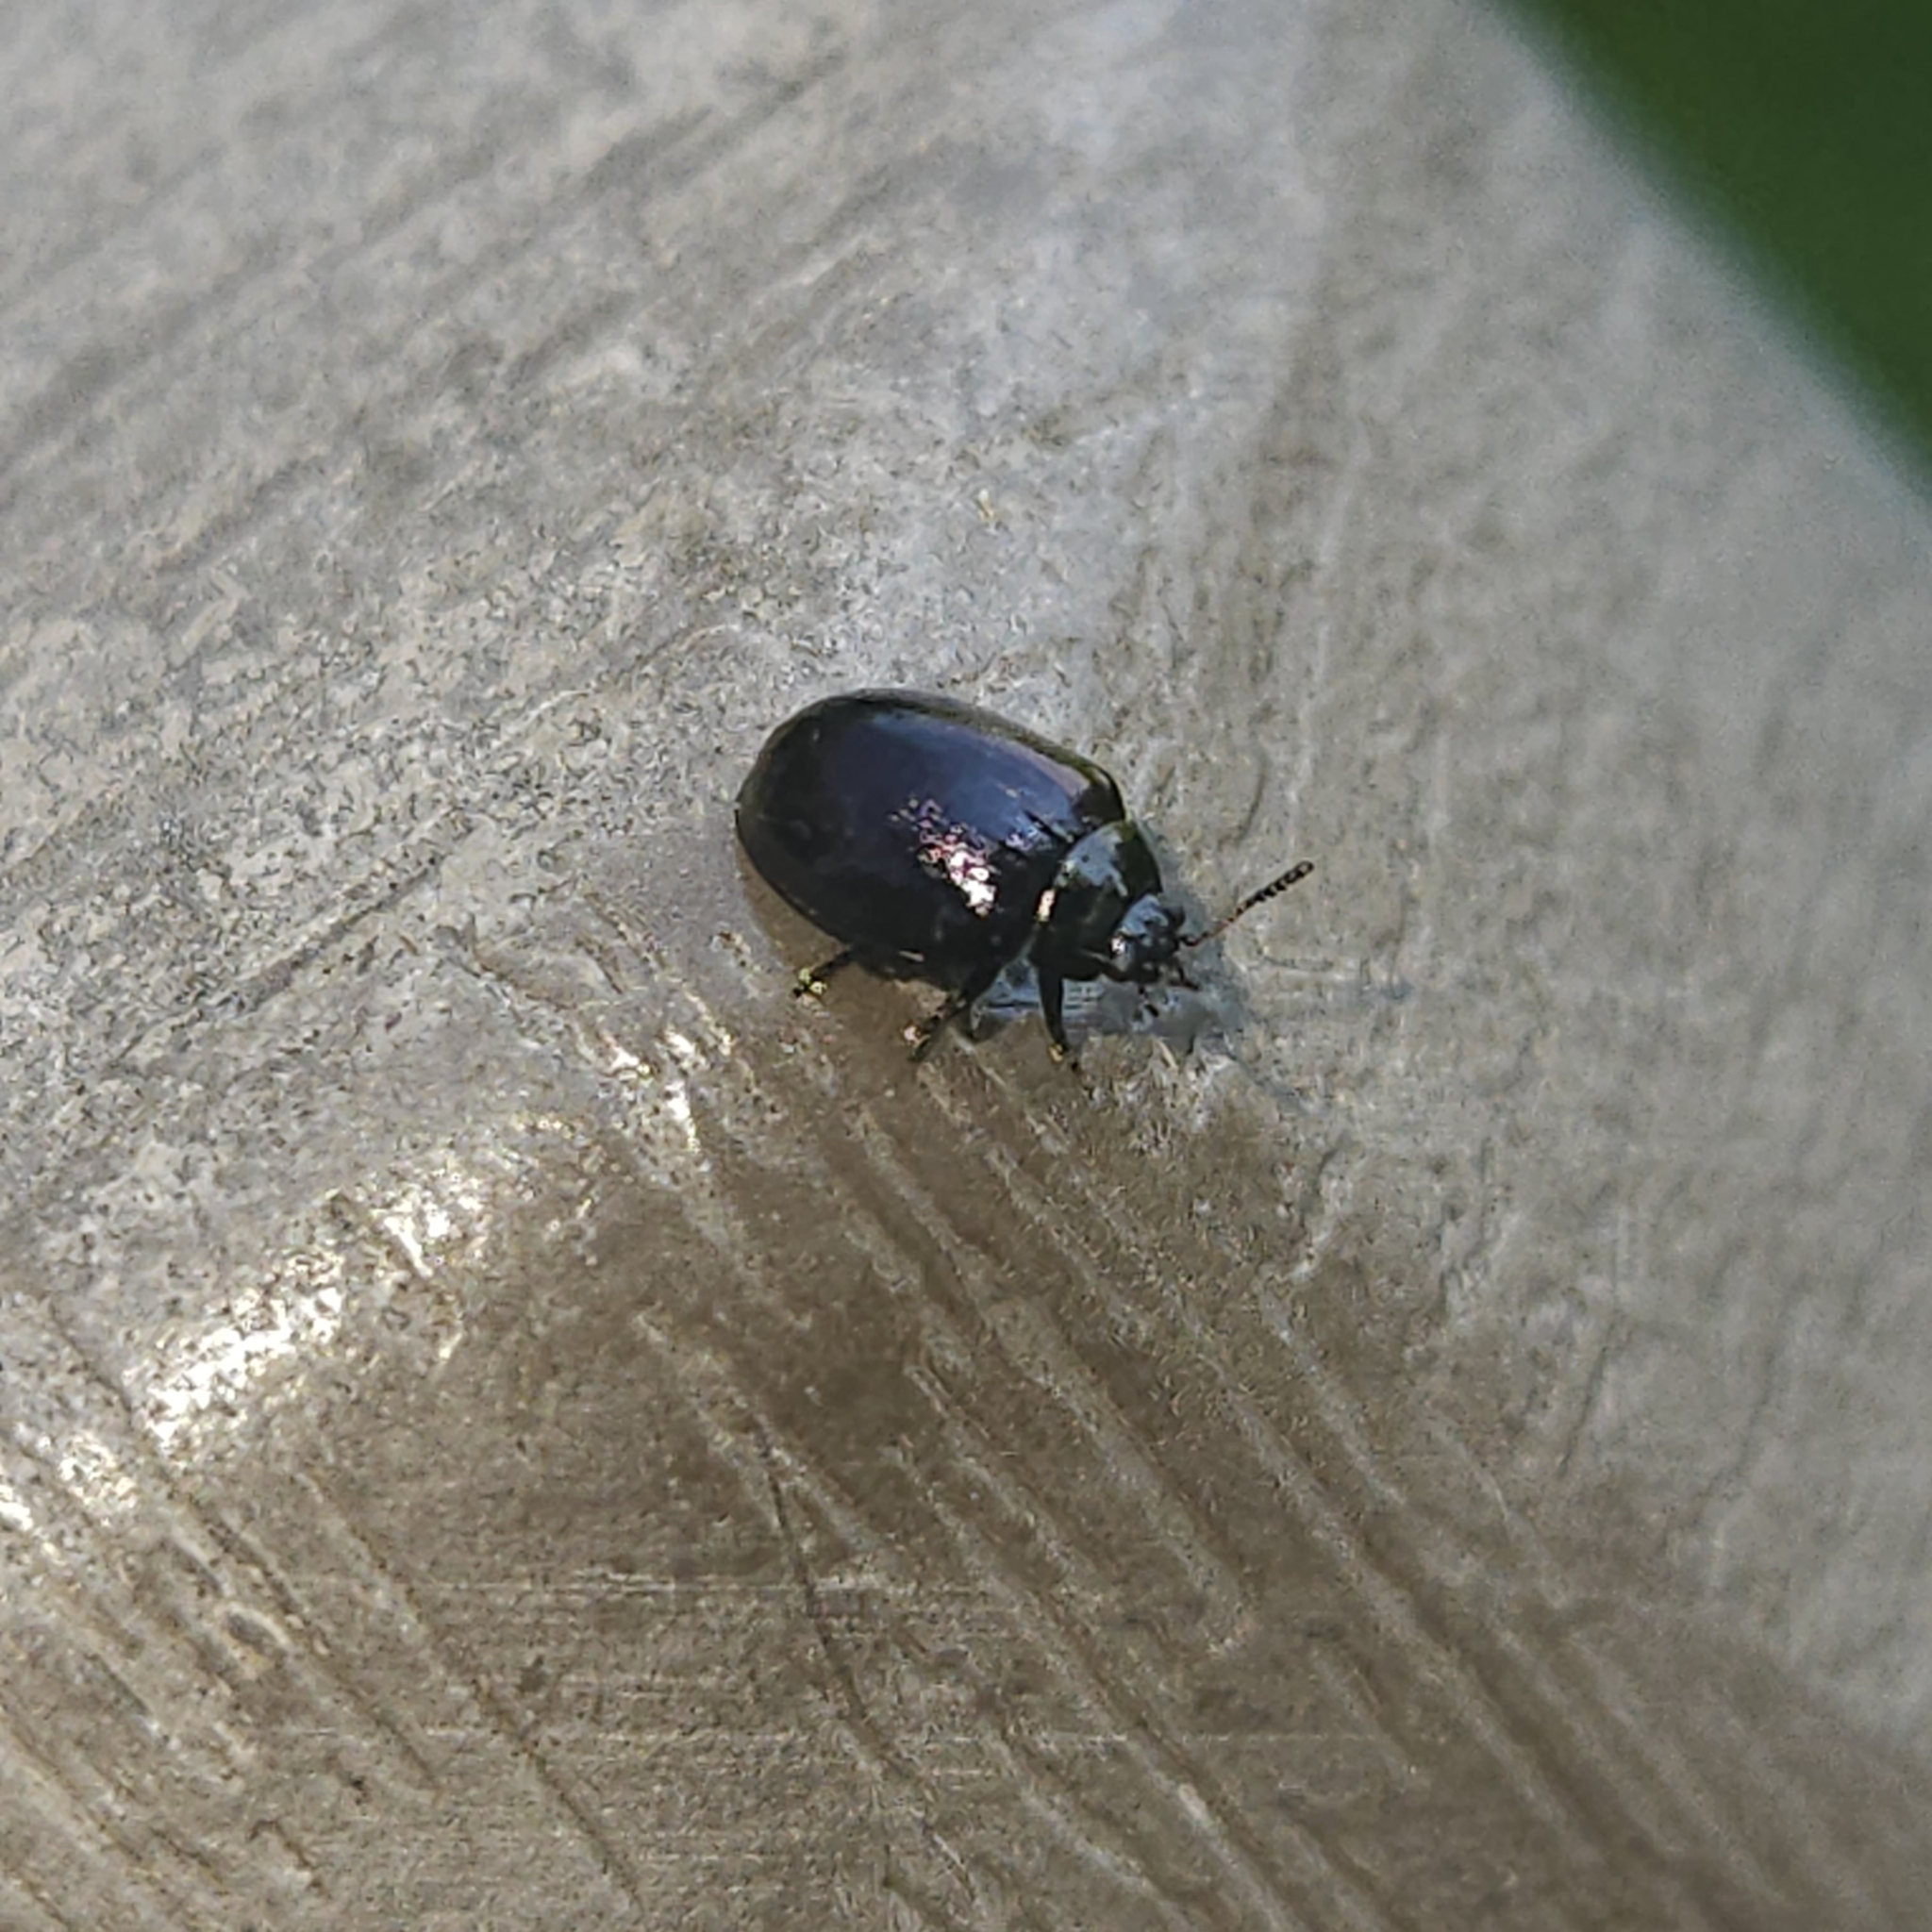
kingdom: Animalia
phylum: Arthropoda
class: Insecta
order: Coleoptera
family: Chrysomelidae
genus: Plagiodera
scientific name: Plagiodera versicolora
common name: Imported willow leaf beetle
